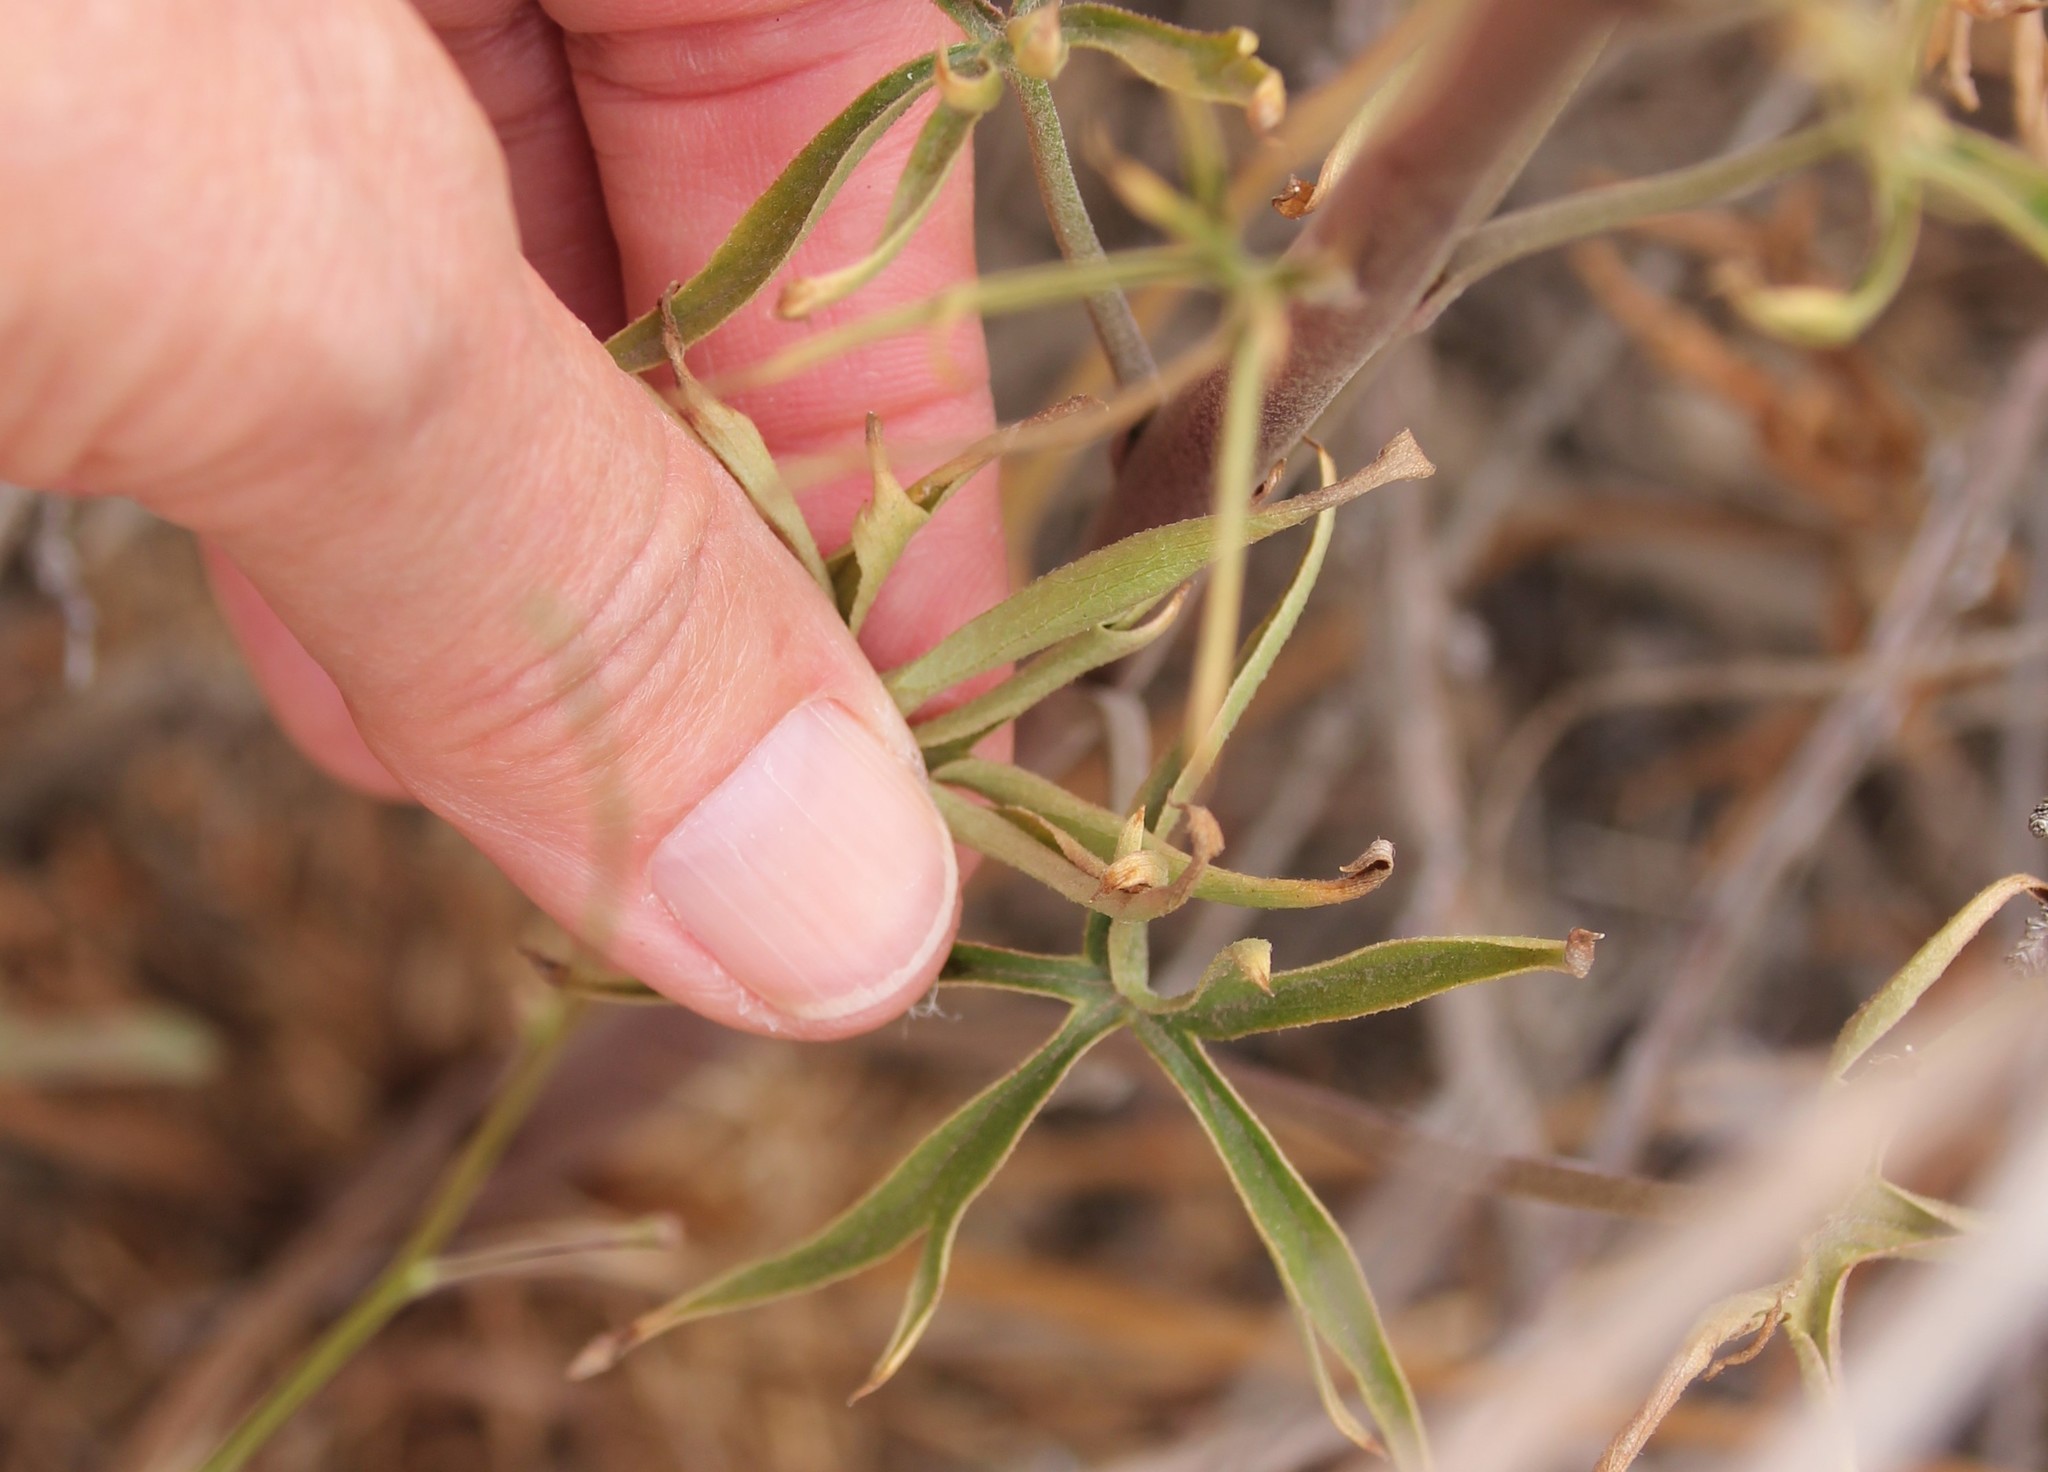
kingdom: Plantae
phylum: Tracheophyta
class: Magnoliopsida
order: Ranunculales
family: Ranunculaceae
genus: Delphinium
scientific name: Delphinium cardinale
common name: Scarlet larkspur
